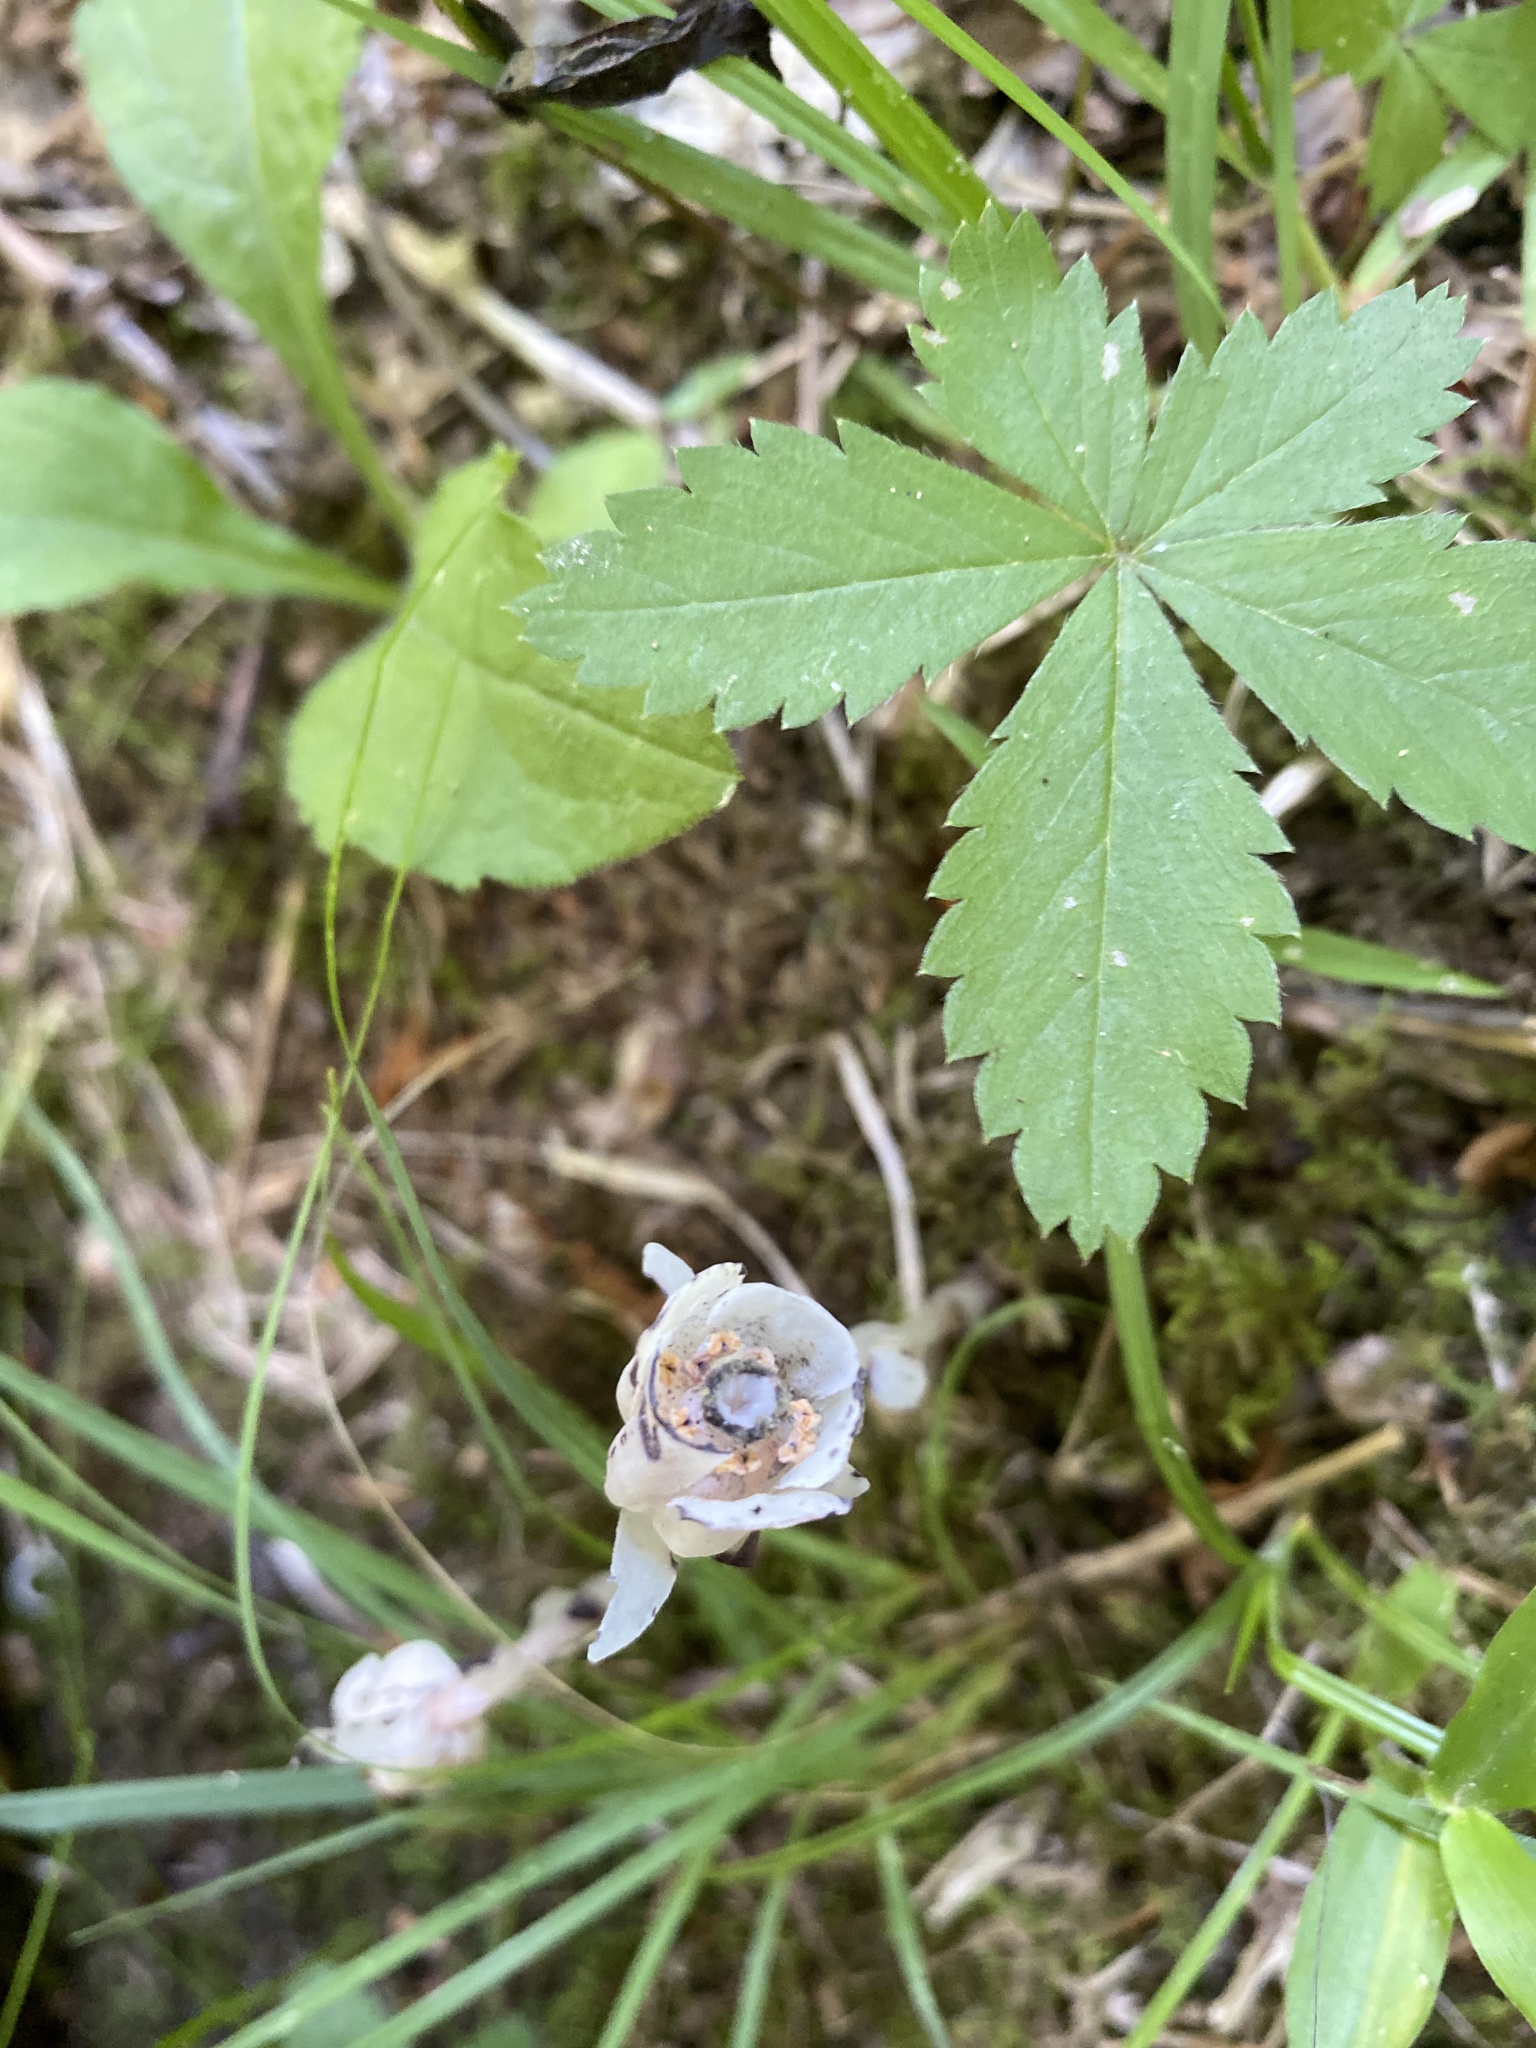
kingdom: Plantae
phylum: Tracheophyta
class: Magnoliopsida
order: Ericales
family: Ericaceae
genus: Monotropa
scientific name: Monotropa uniflora
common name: Convulsion root
